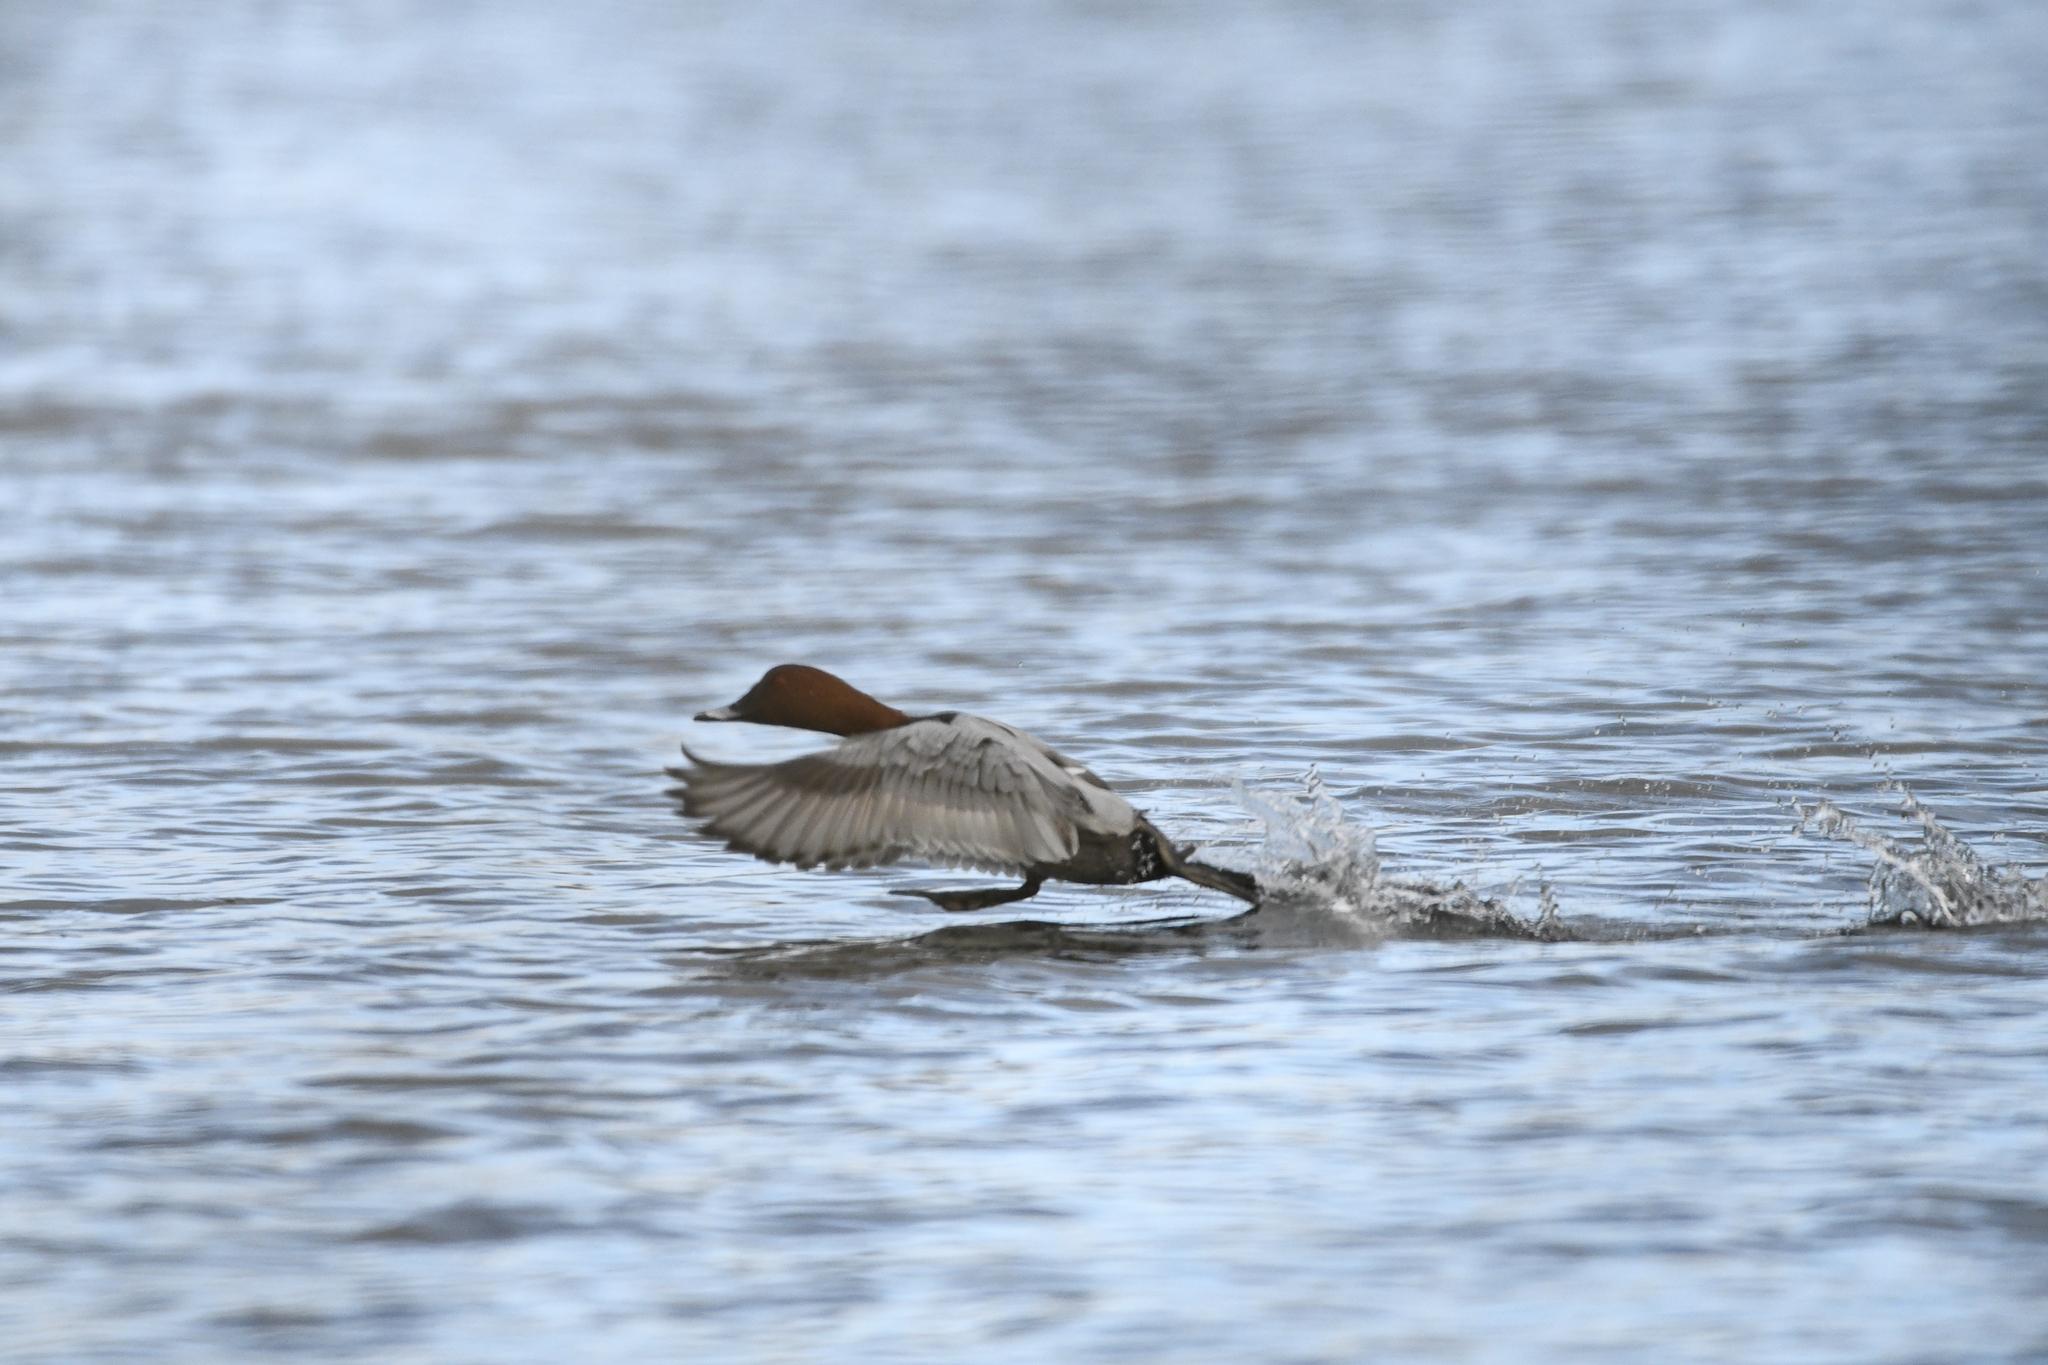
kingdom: Animalia
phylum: Chordata
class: Aves
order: Anseriformes
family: Anatidae
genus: Aythya
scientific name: Aythya ferina
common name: Common pochard
